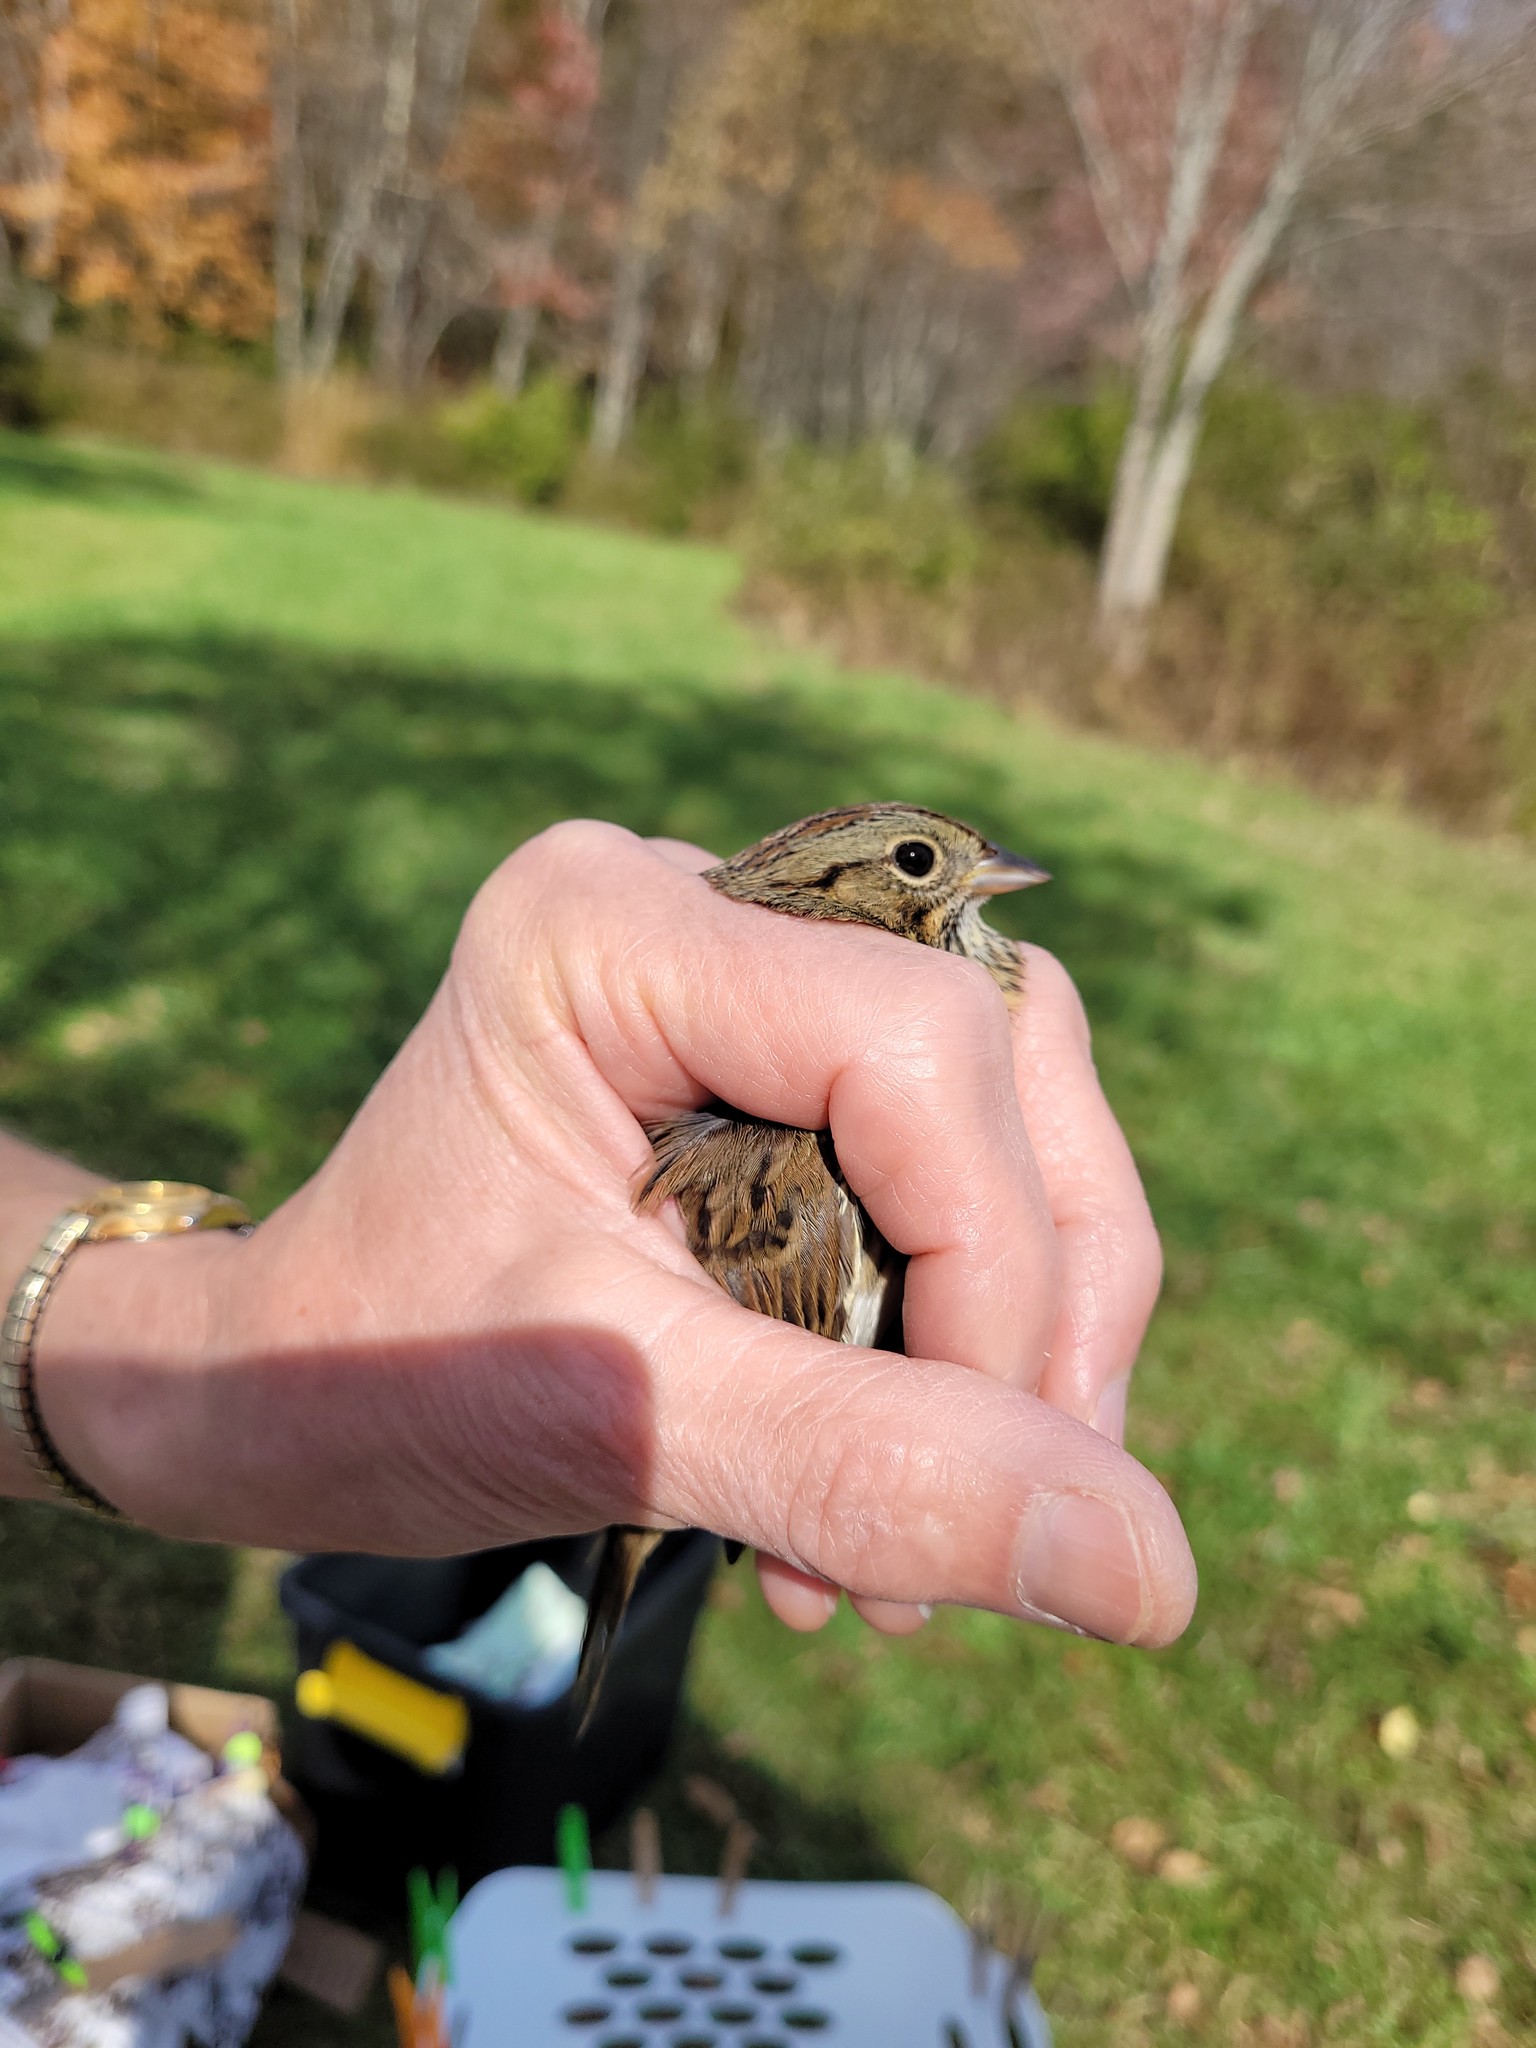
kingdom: Animalia
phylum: Chordata
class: Aves
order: Passeriformes
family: Passerellidae
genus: Melospiza
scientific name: Melospiza lincolnii
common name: Lincoln's sparrow
